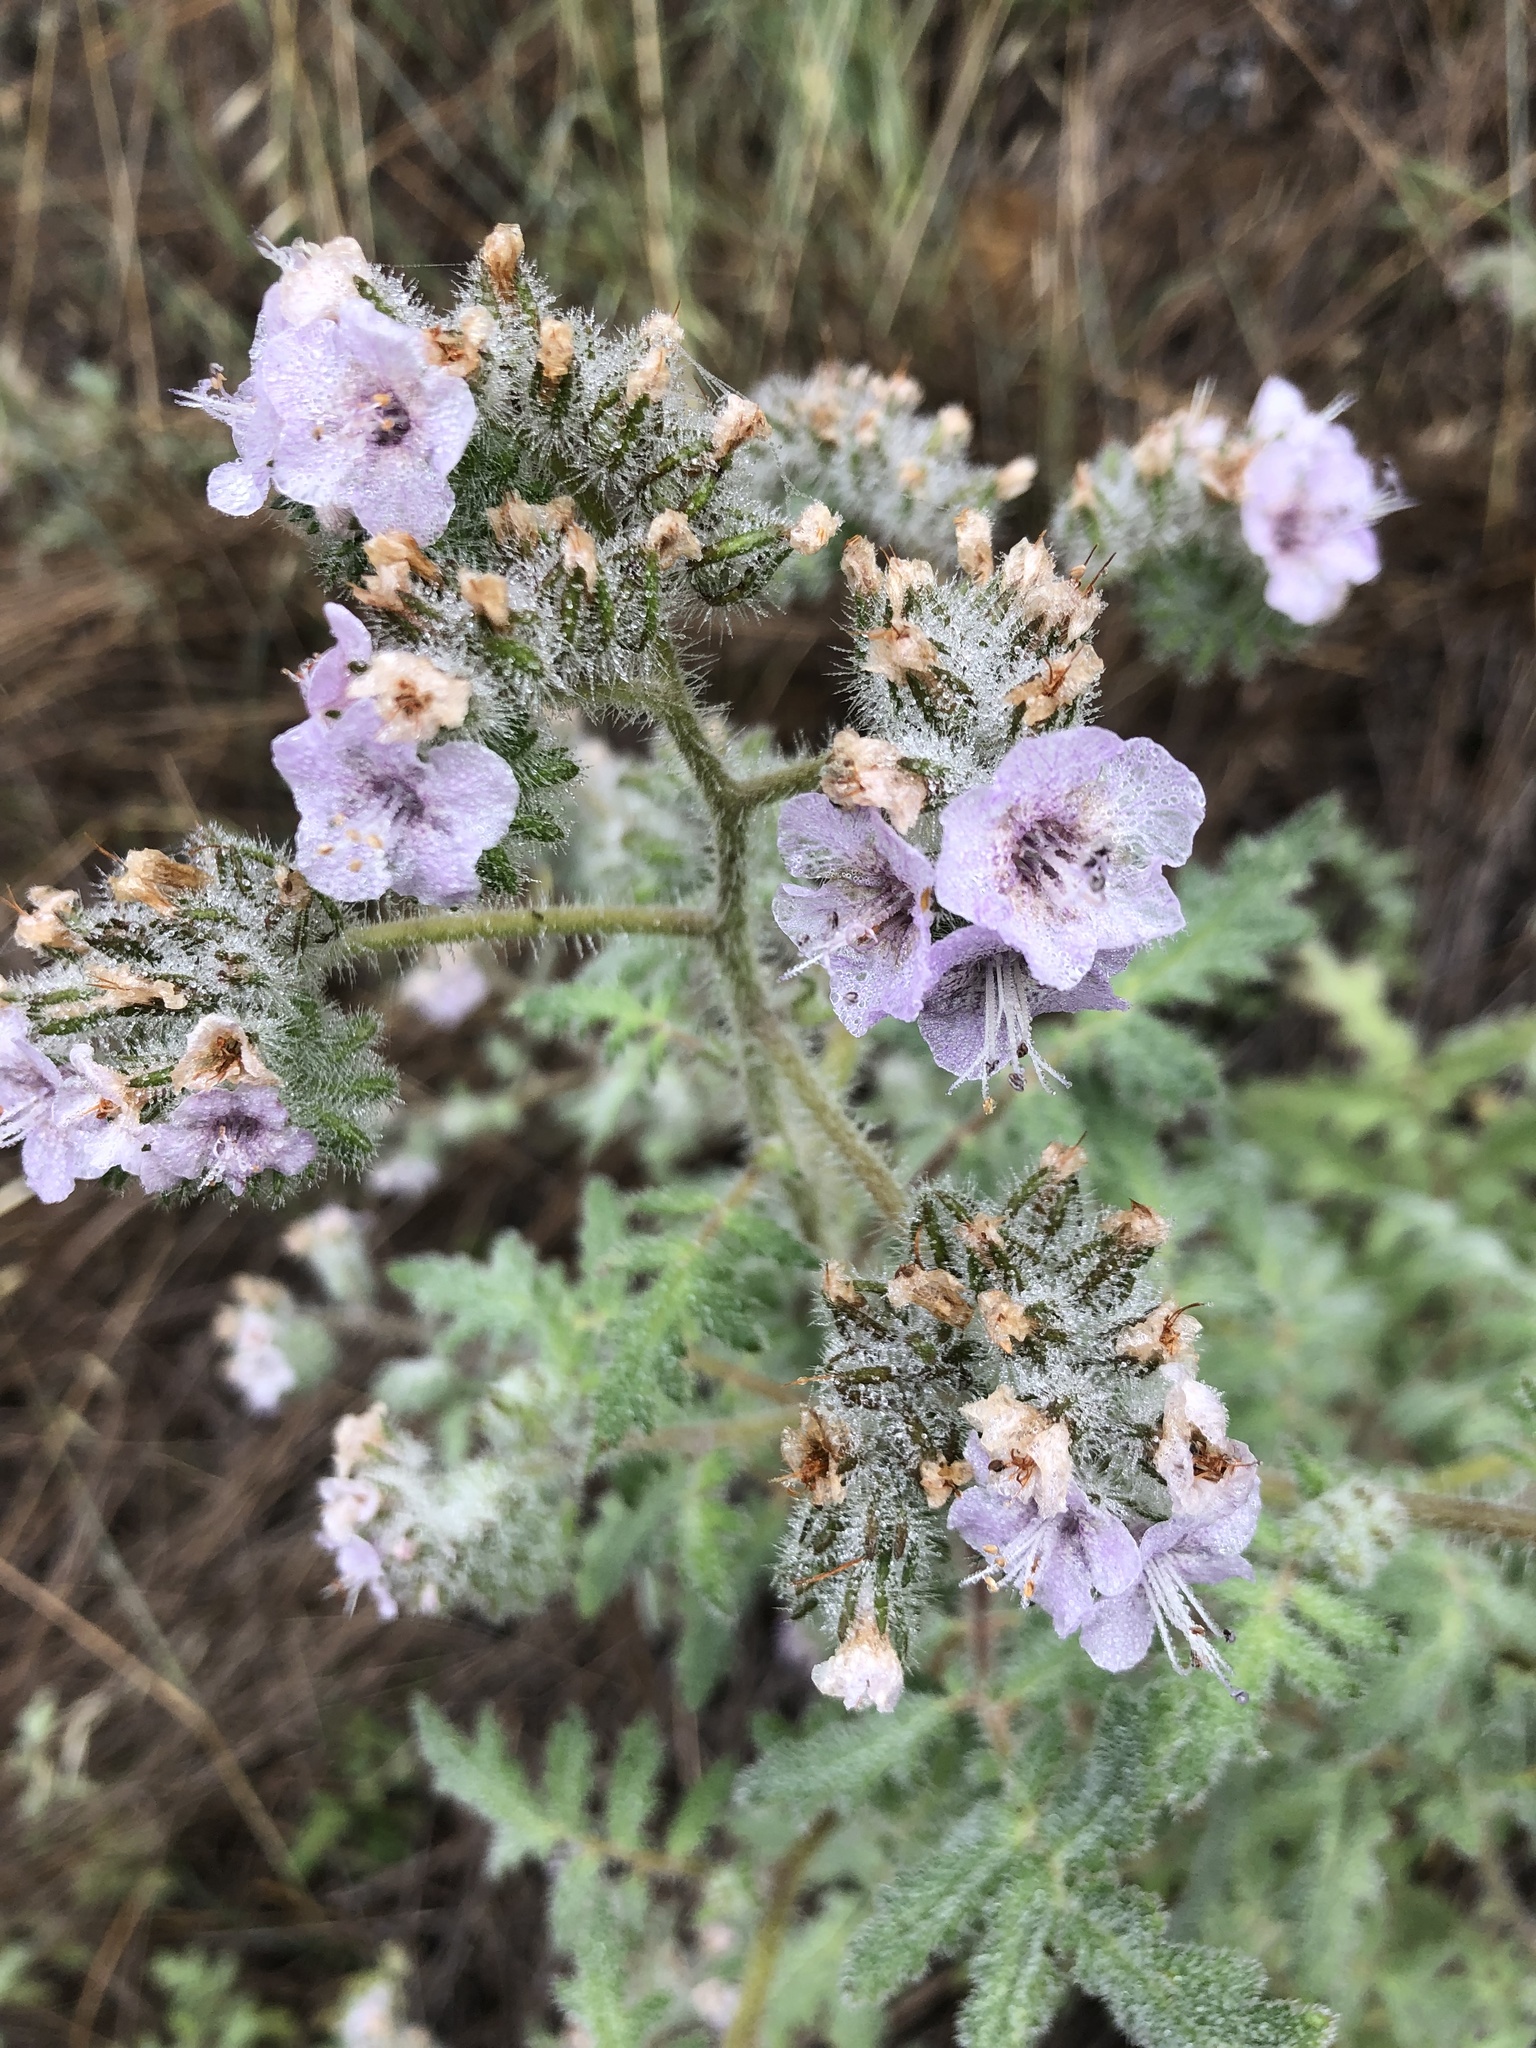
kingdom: Plantae
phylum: Tracheophyta
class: Magnoliopsida
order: Boraginales
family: Hydrophyllaceae
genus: Phacelia
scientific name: Phacelia cicutaria
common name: Caterpillar phacelia
